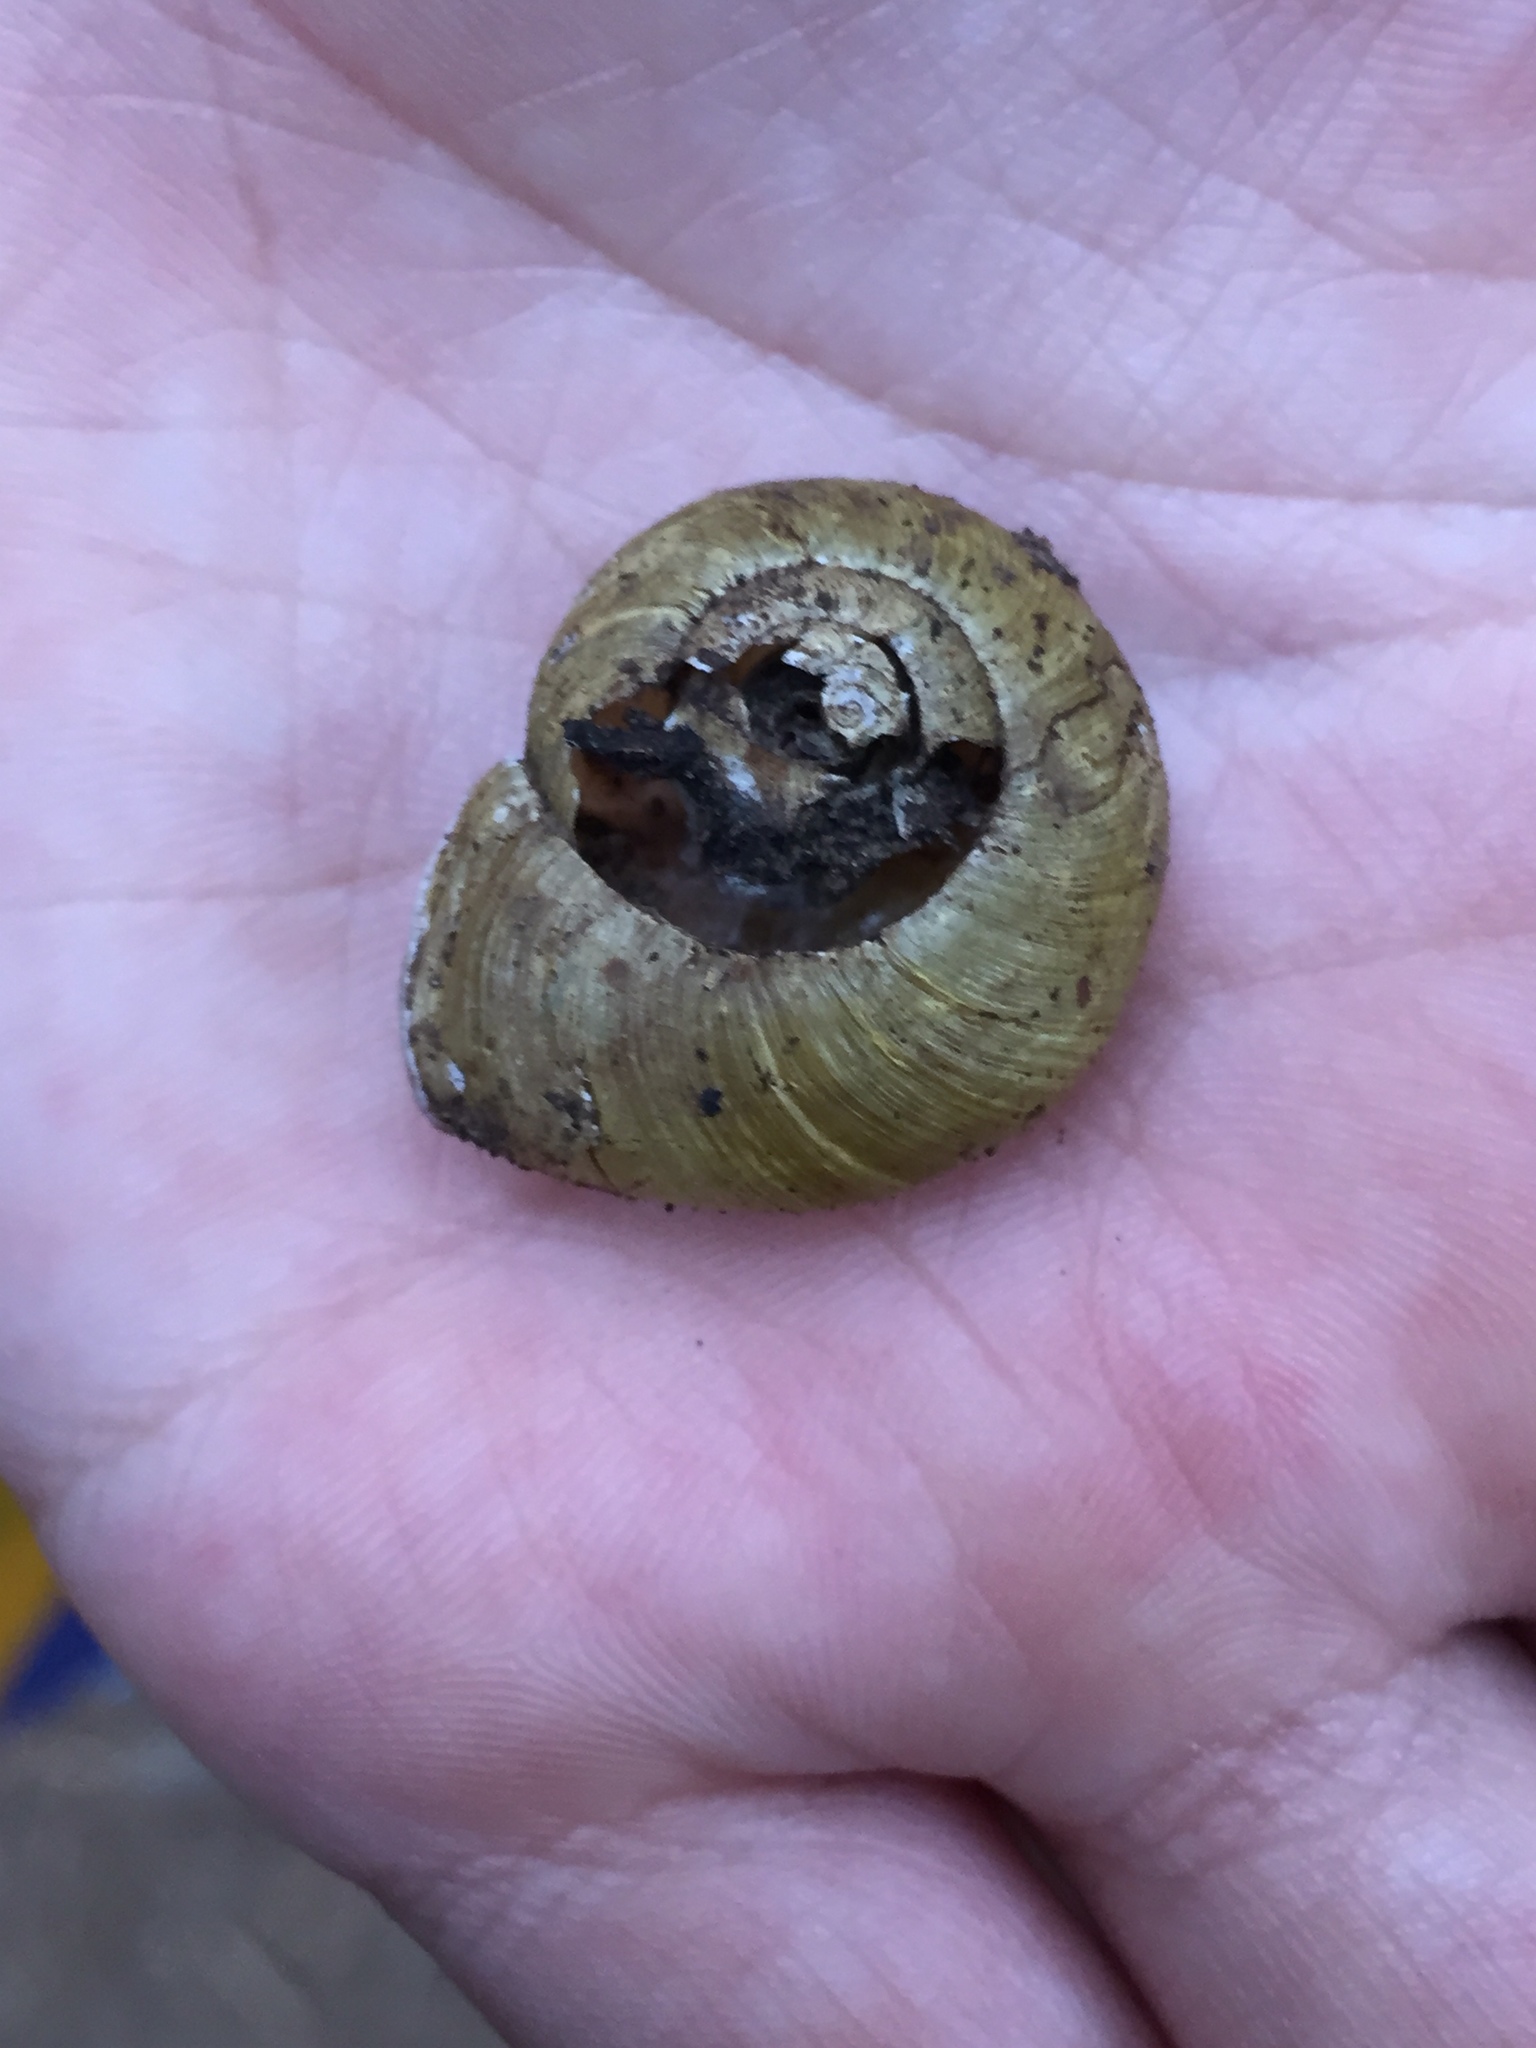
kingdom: Animalia
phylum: Mollusca
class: Gastropoda
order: Stylommatophora
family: Haplotrematidae
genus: Haplotrema
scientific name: Haplotrema vancouverense
